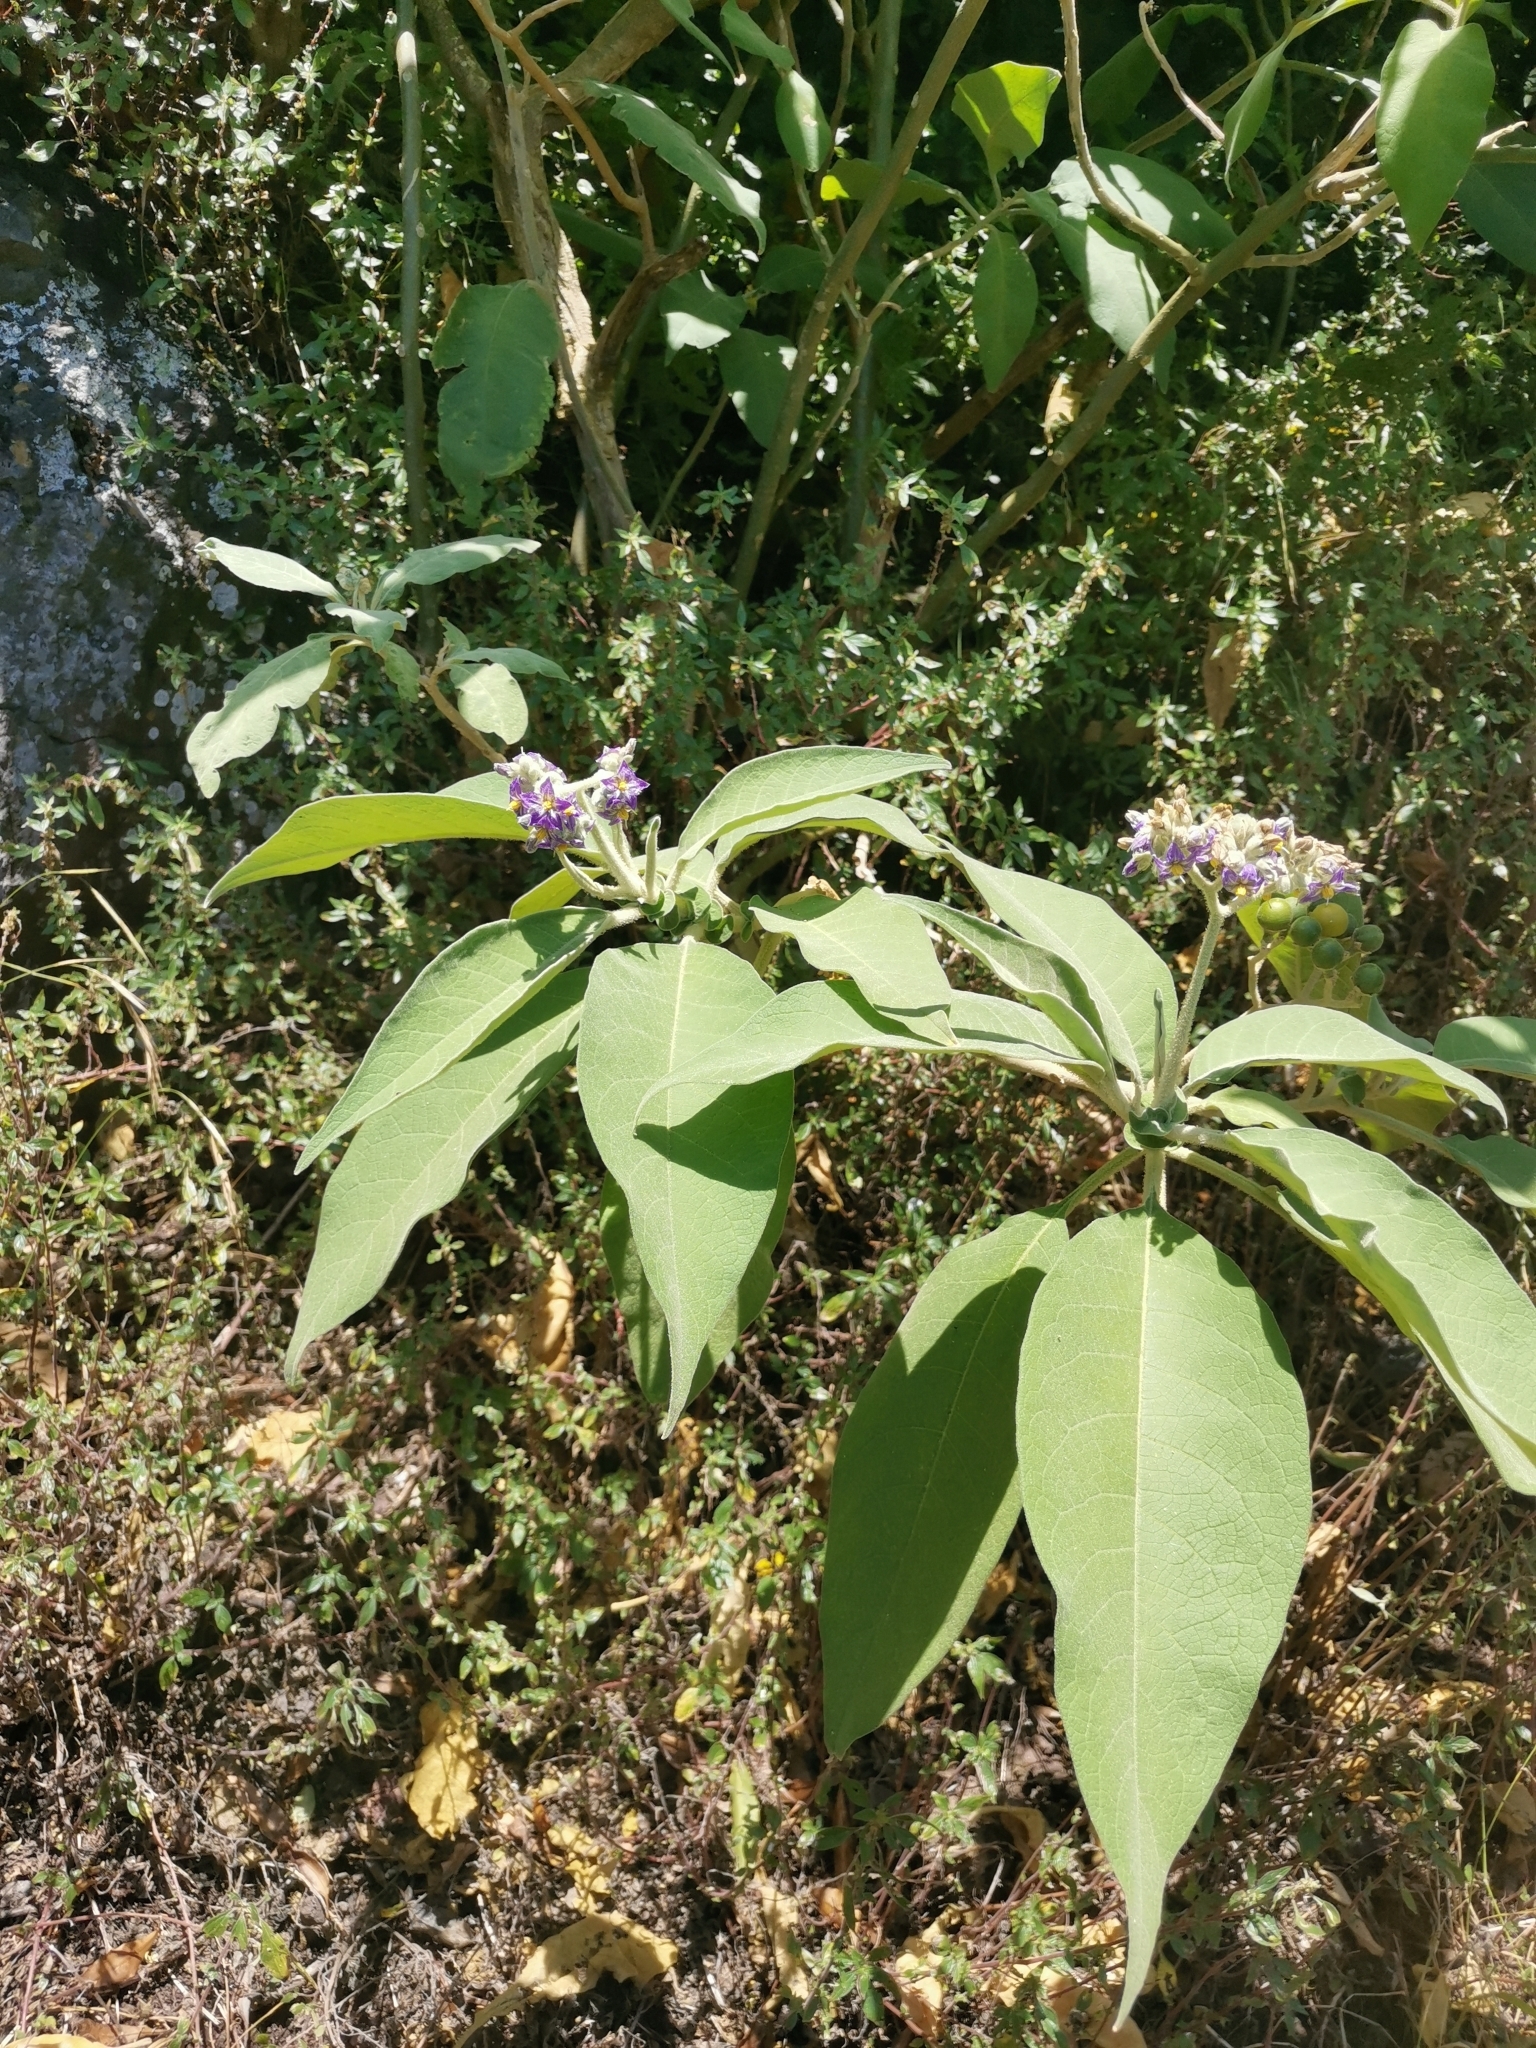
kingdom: Plantae
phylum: Tracheophyta
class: Magnoliopsida
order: Solanales
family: Solanaceae
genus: Solanum
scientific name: Solanum mauritianum
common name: Earleaf nightshade
